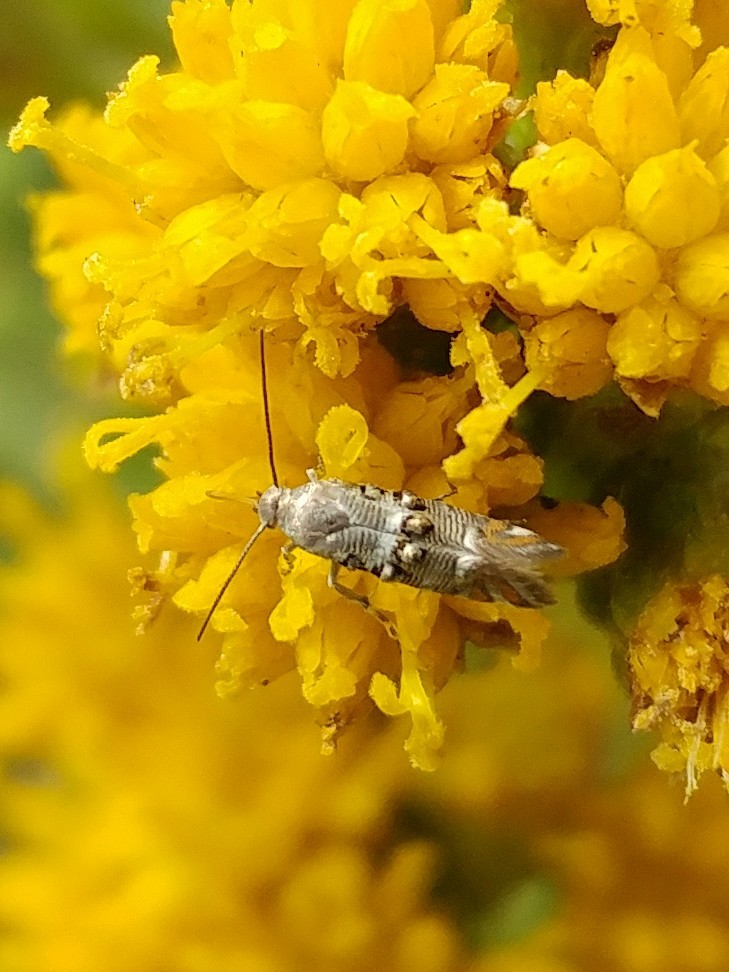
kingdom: Animalia
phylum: Arthropoda
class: Insecta
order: Lepidoptera
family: Heliodinidae
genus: Lithariapteryx
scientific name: Lithariapteryx abroniaeella
